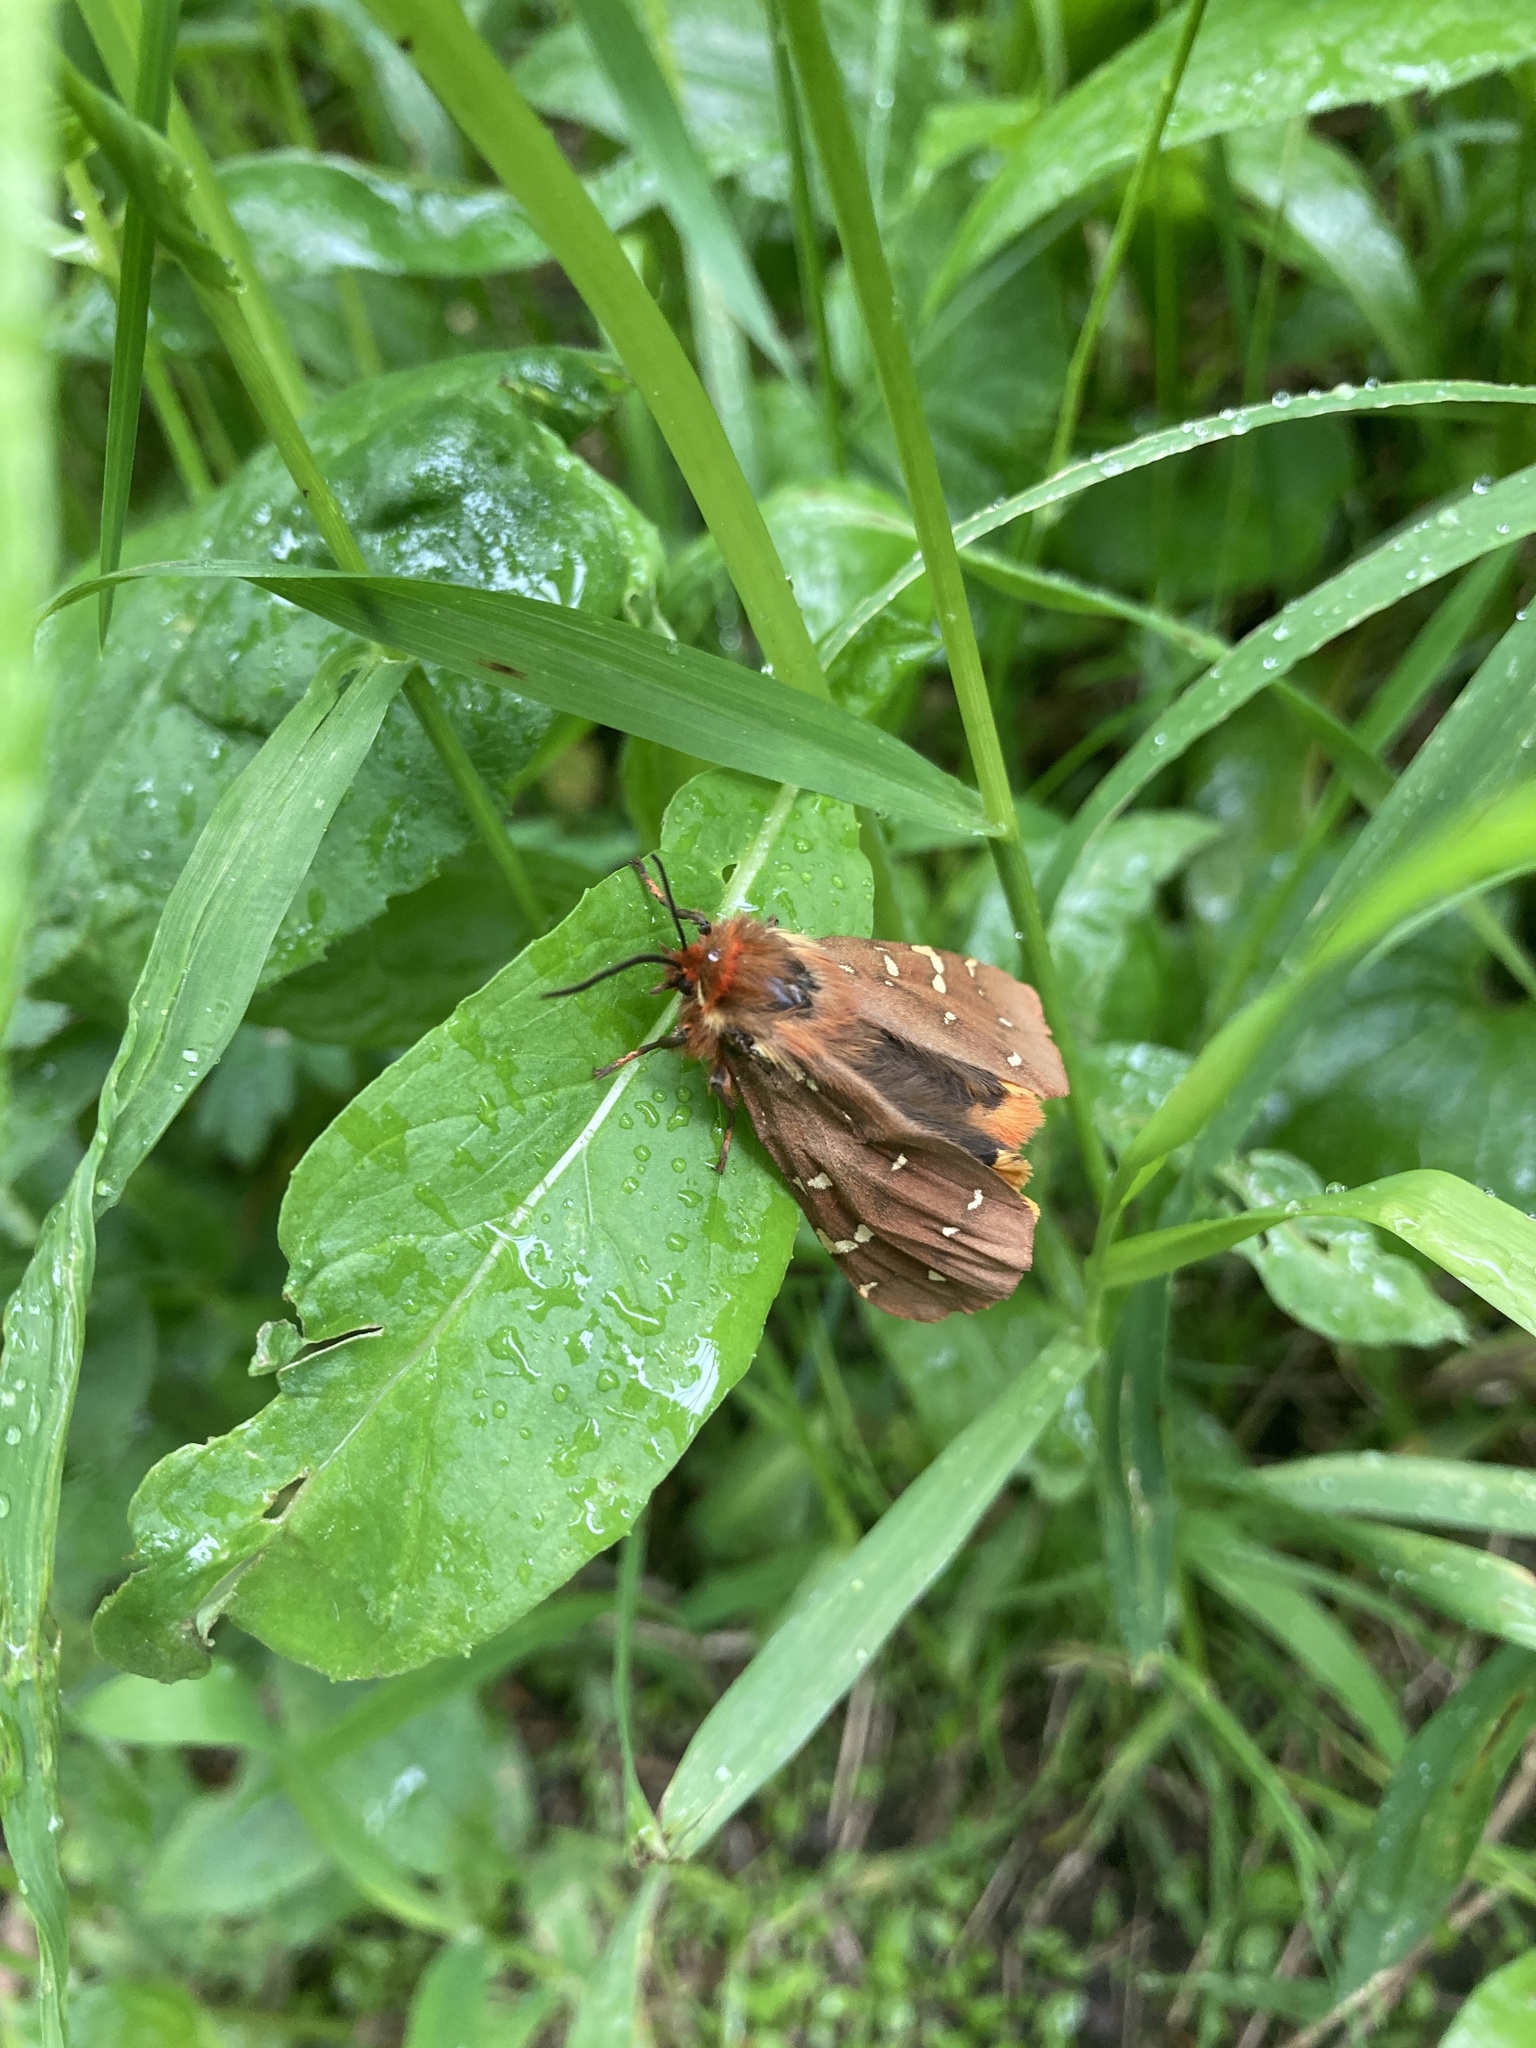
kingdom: Animalia
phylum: Arthropoda
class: Insecta
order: Lepidoptera
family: Erebidae
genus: Arctia
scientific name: Arctia parthenos
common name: St. lawrence tiger moth
